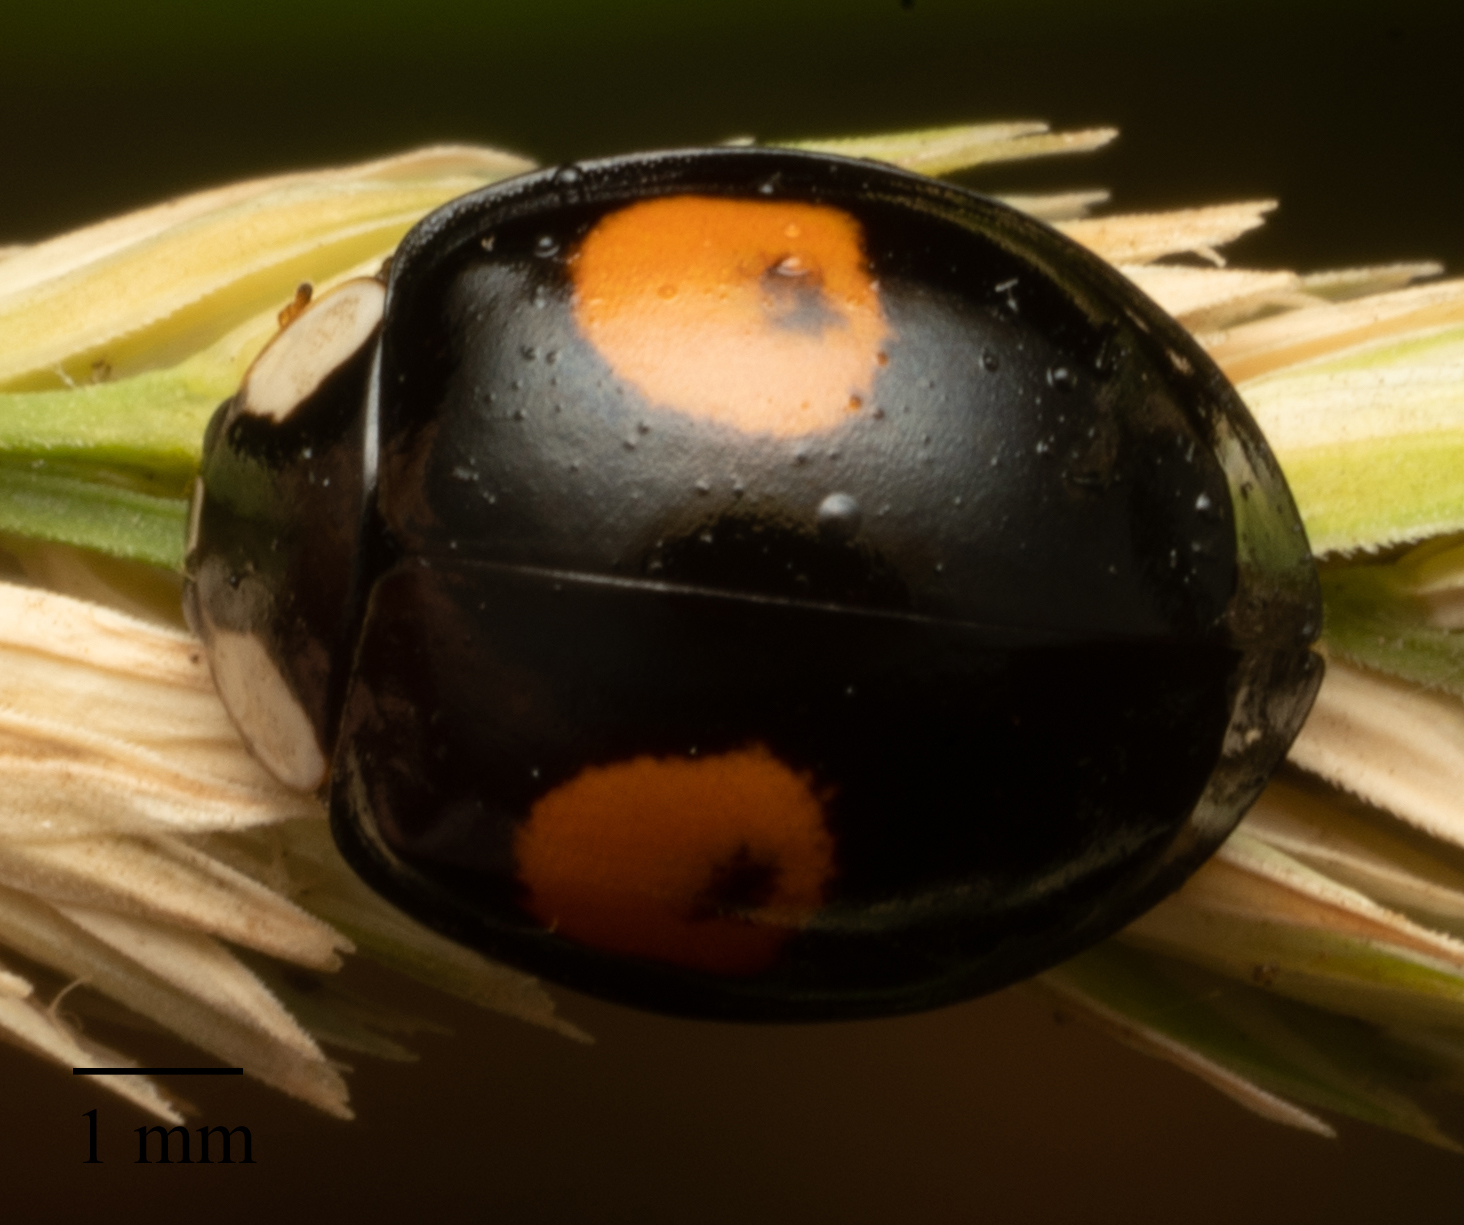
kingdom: Animalia
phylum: Arthropoda
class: Insecta
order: Coleoptera
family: Coccinellidae
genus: Harmonia
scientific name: Harmonia axyridis
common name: Harlequin ladybird
